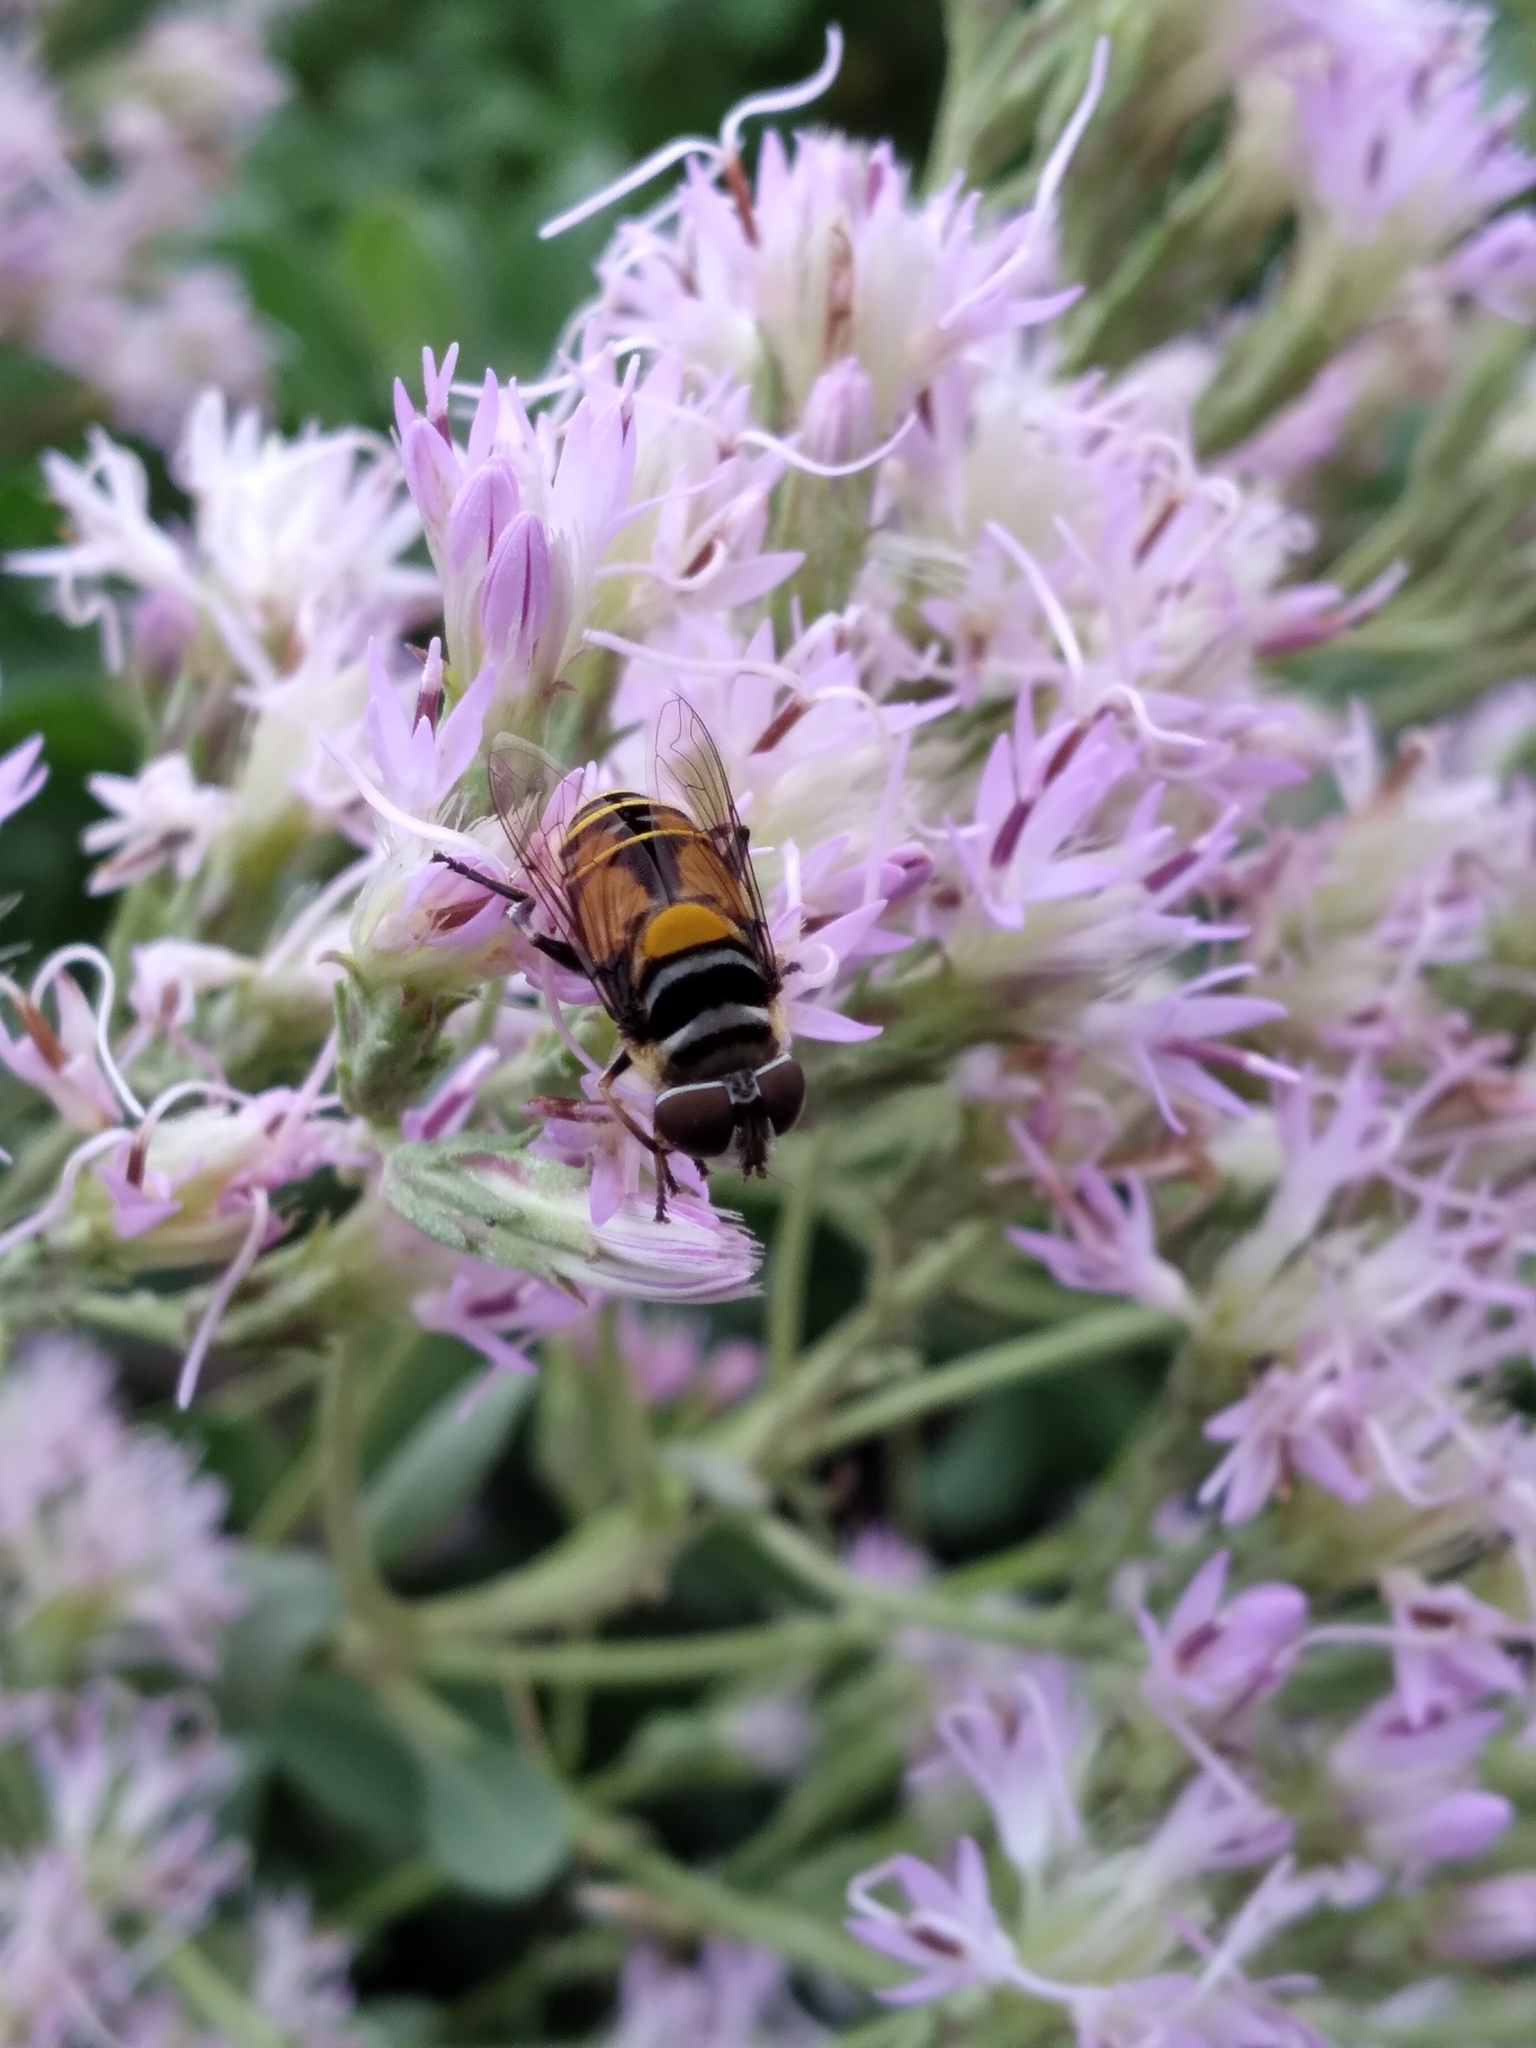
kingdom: Animalia
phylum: Arthropoda
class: Insecta
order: Diptera
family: Syrphidae
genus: Palpada
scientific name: Palpada agrorum
